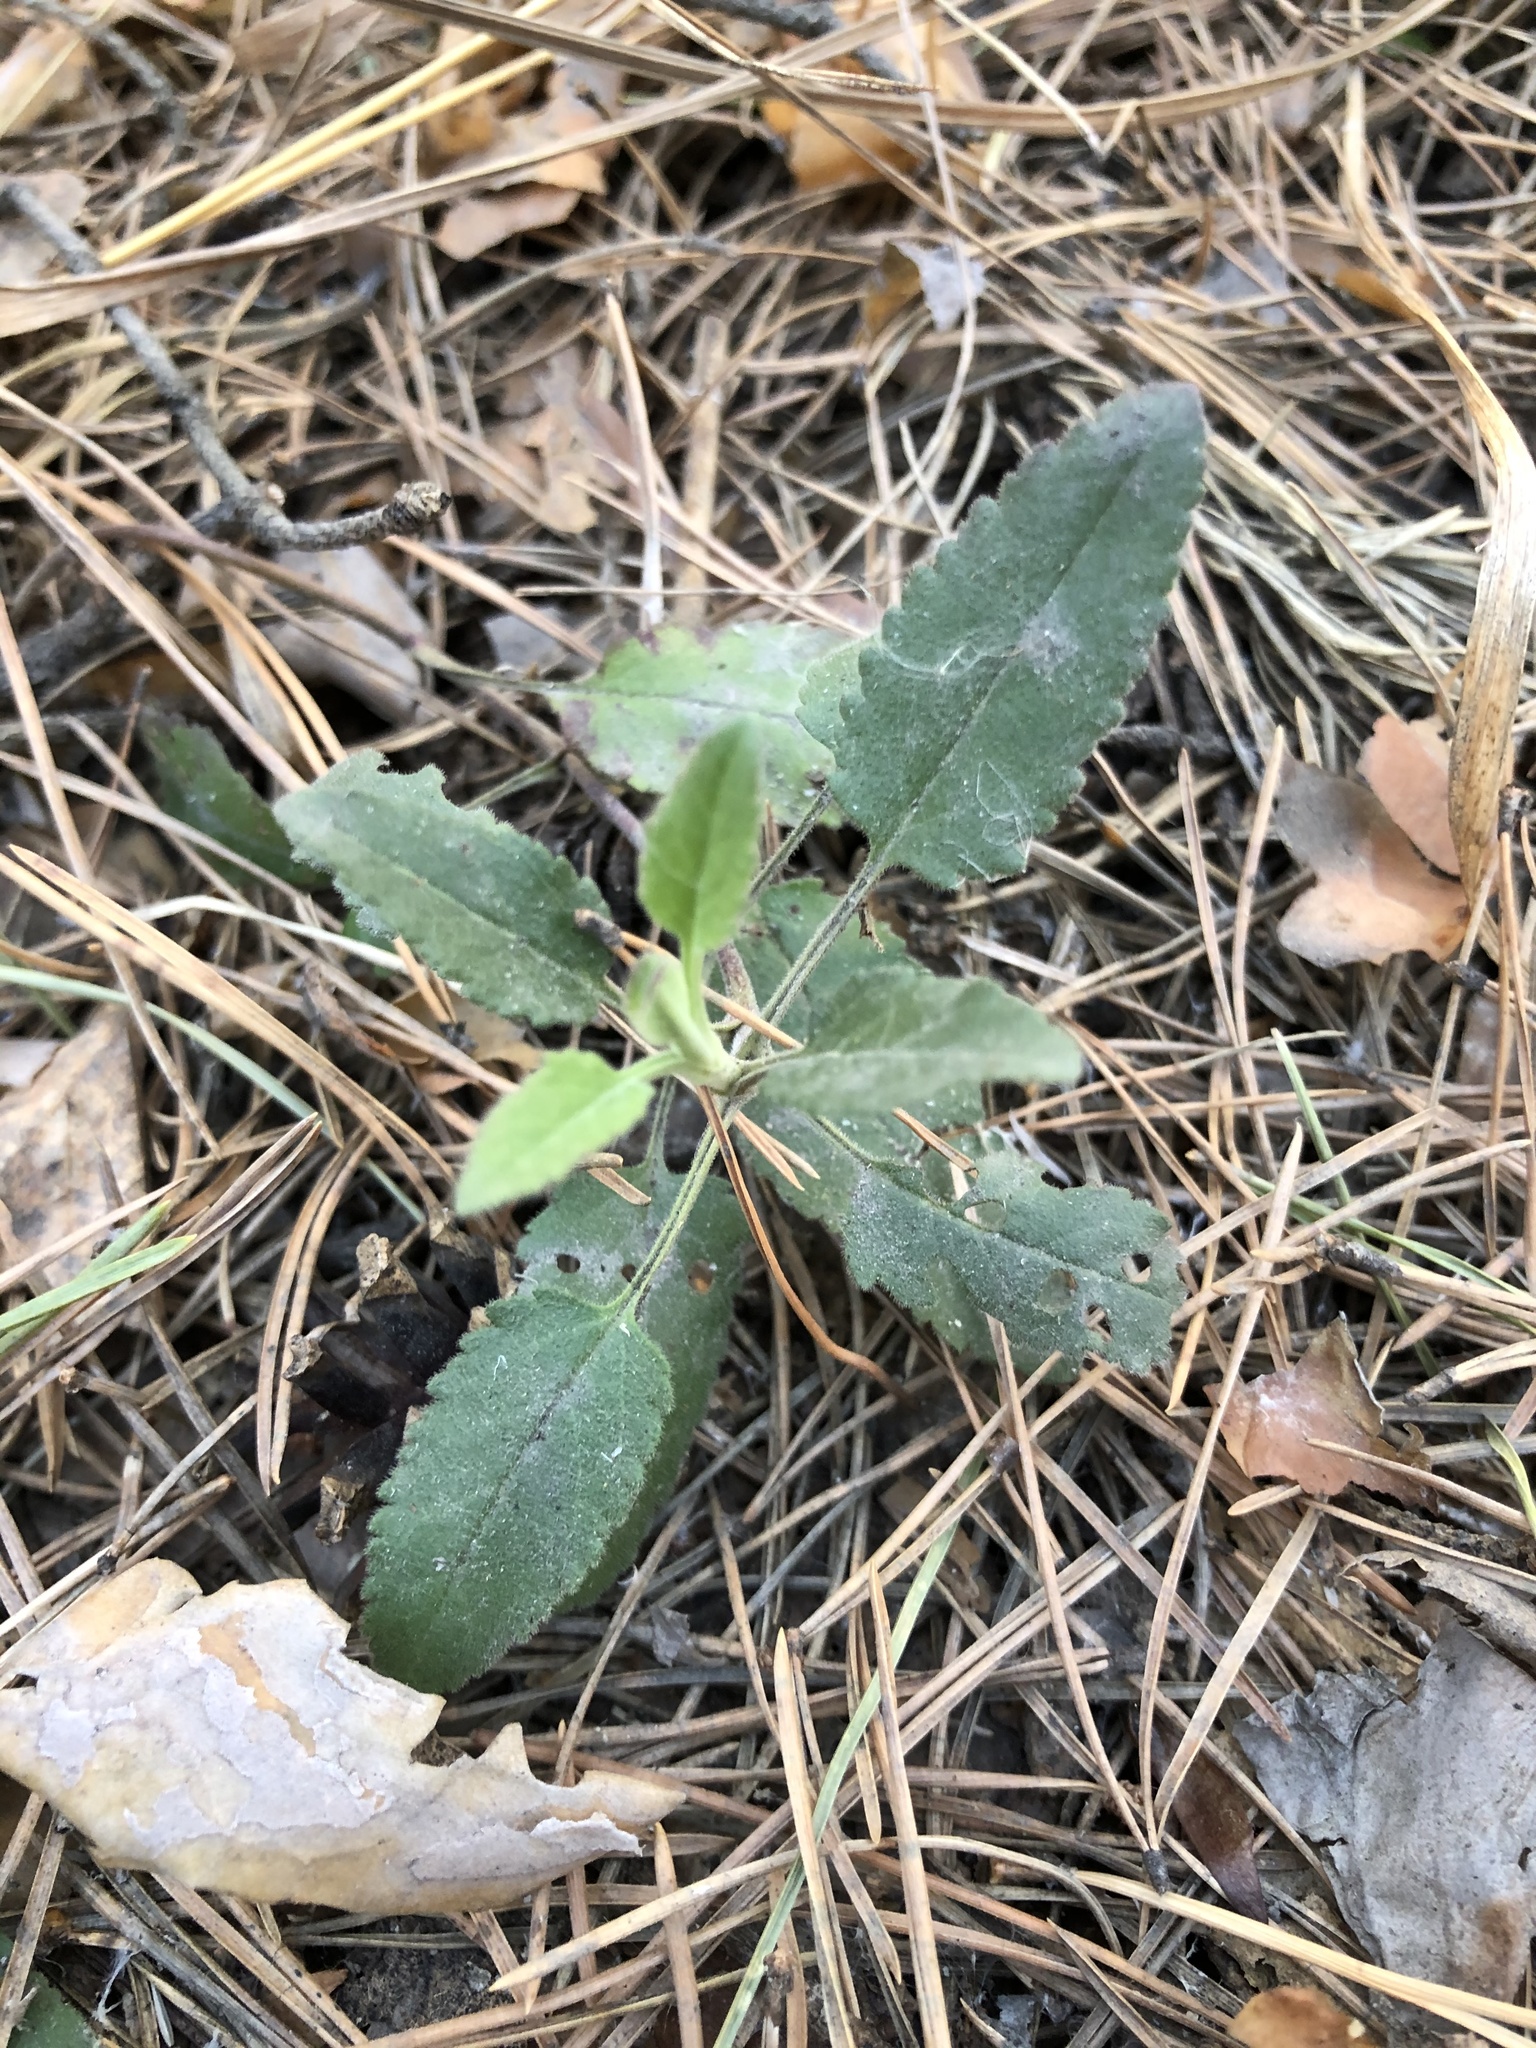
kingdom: Plantae
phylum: Tracheophyta
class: Magnoliopsida
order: Lamiales
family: Plantaginaceae
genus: Veronica
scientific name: Veronica spicata
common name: Spiked speedwell
